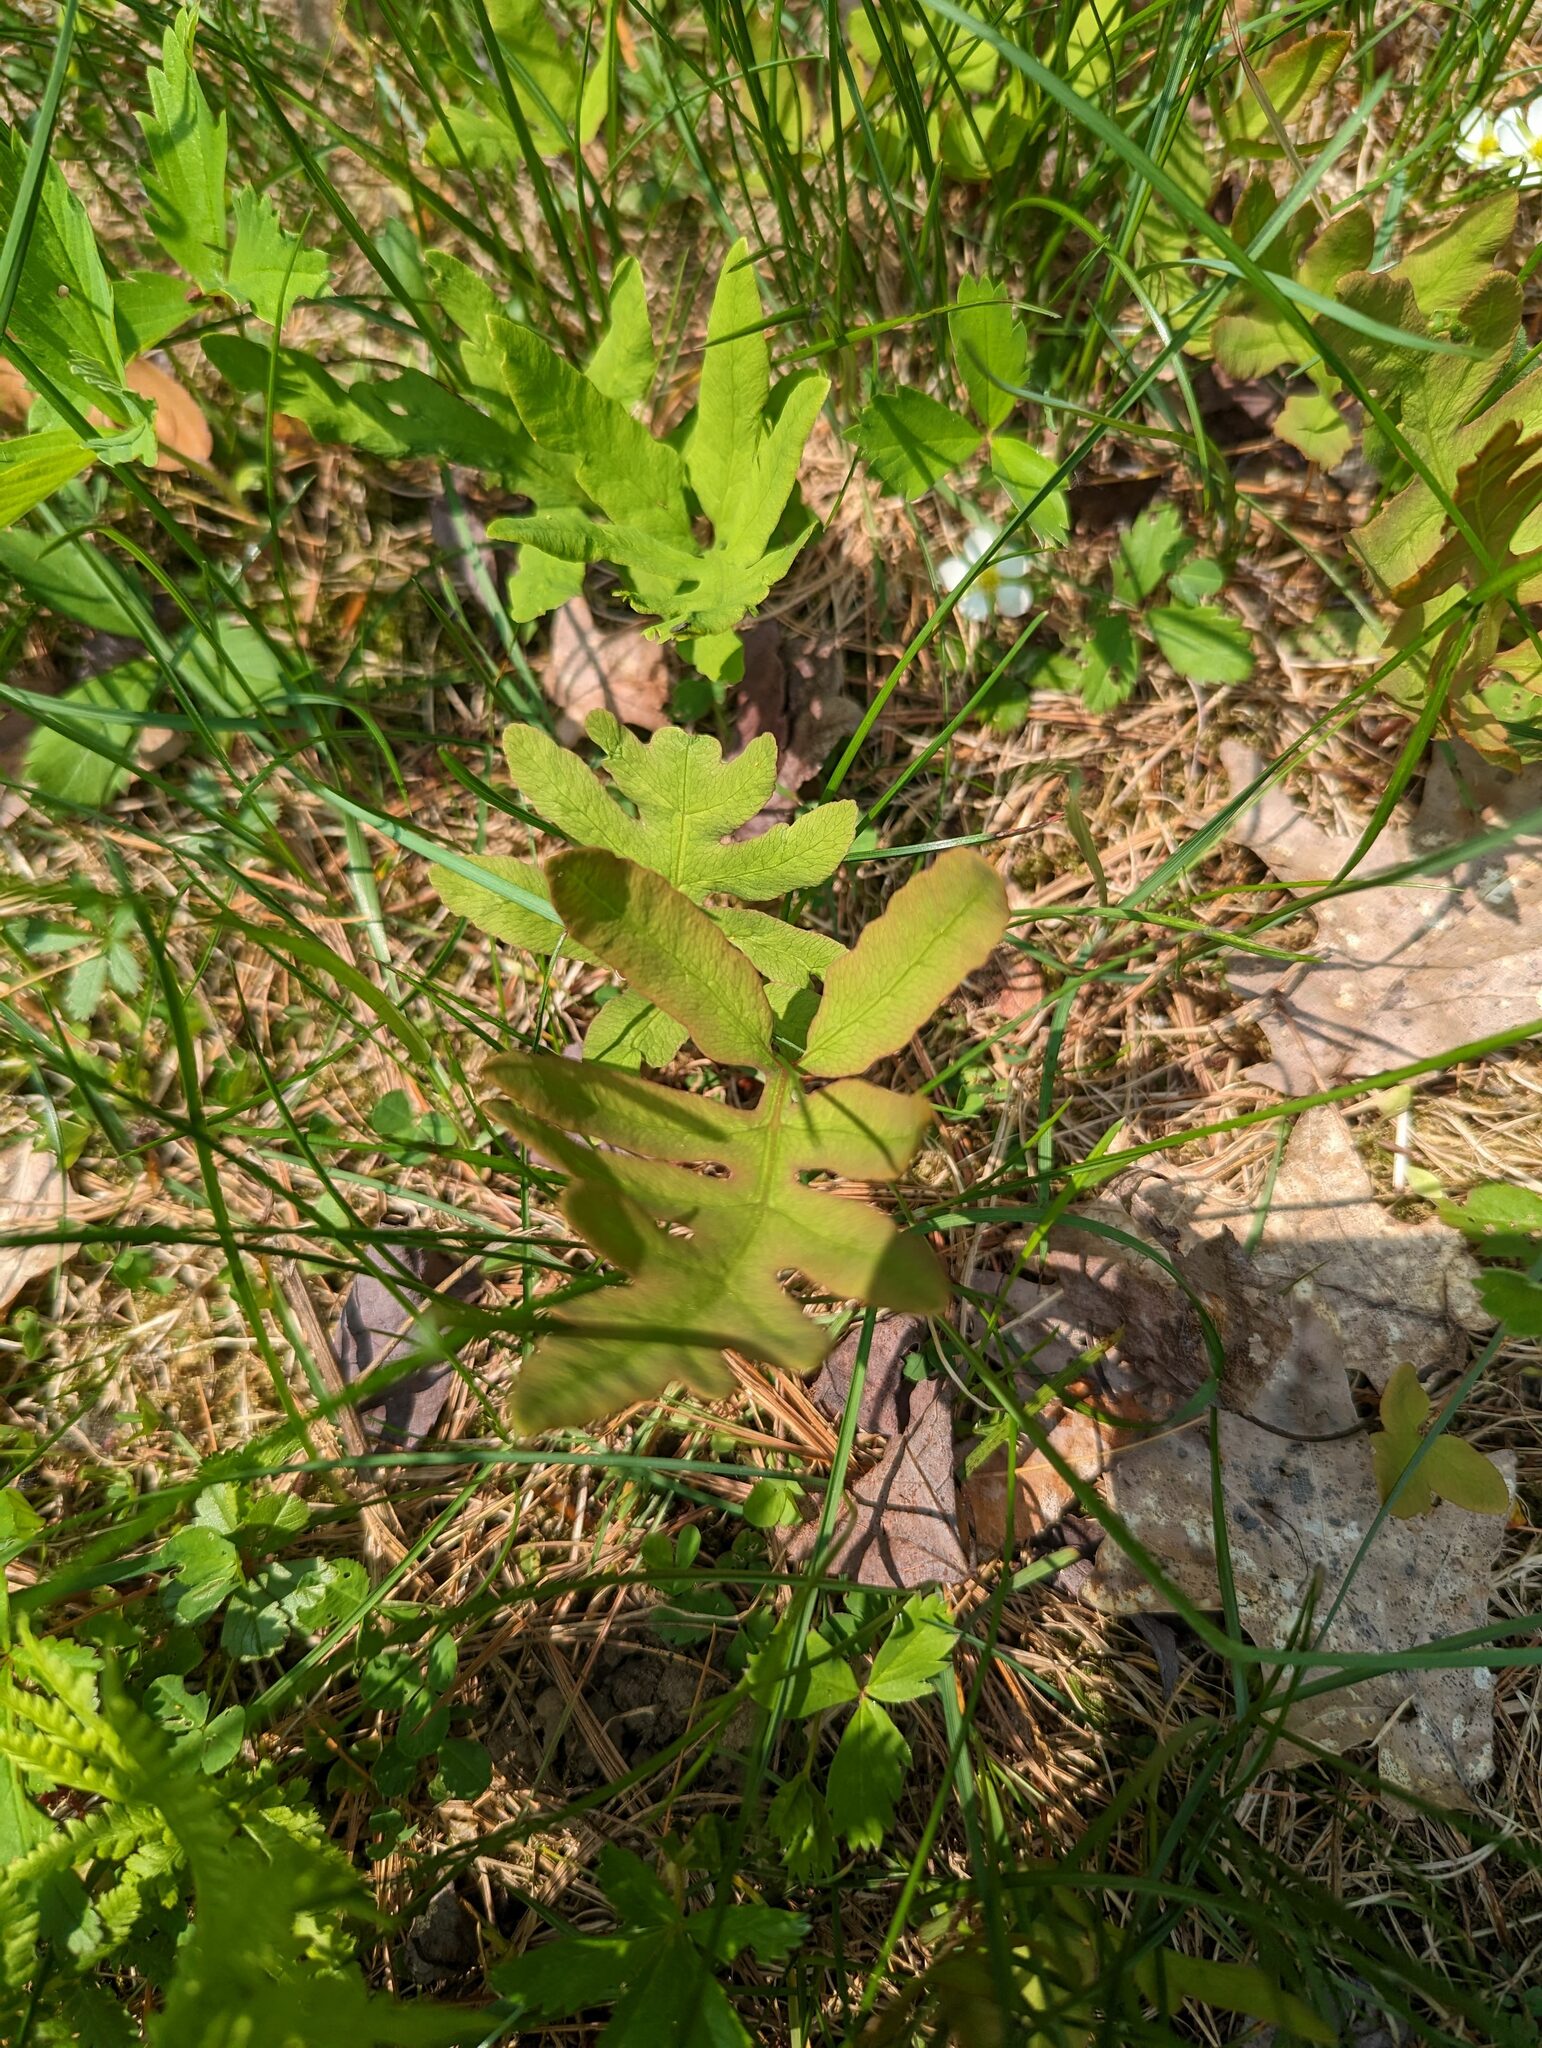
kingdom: Plantae
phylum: Tracheophyta
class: Polypodiopsida
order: Polypodiales
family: Onocleaceae
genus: Onoclea
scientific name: Onoclea sensibilis
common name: Sensitive fern
